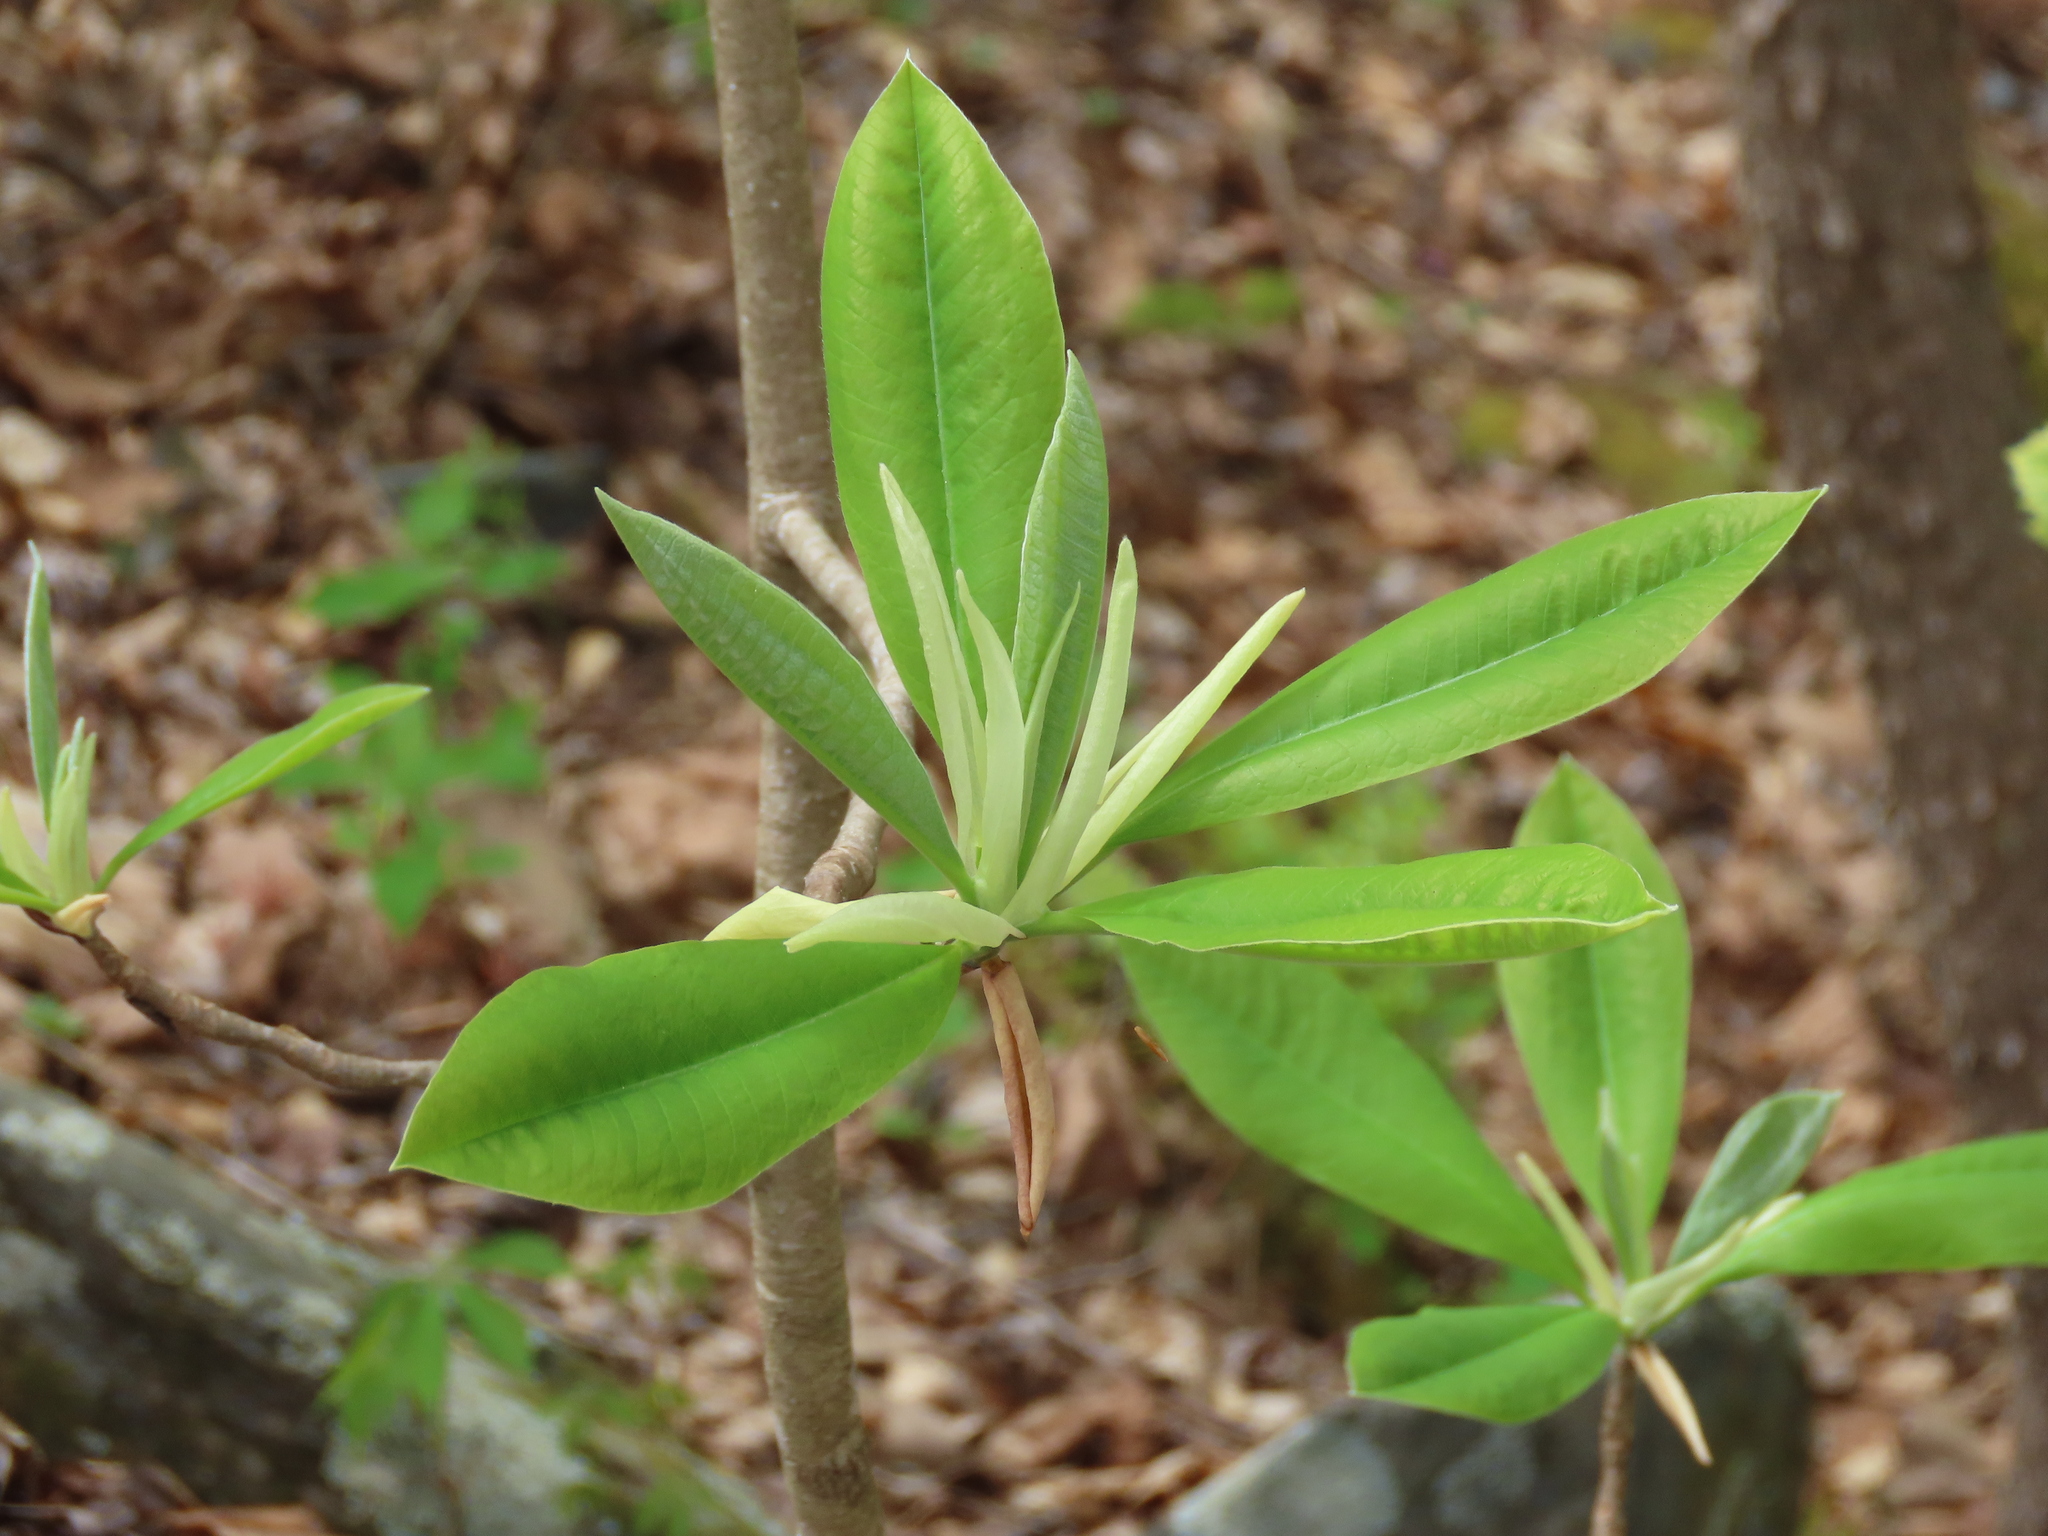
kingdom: Plantae
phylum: Tracheophyta
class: Magnoliopsida
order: Magnoliales
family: Magnoliaceae
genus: Magnolia
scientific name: Magnolia tripetala
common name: Umbrella magnolia
